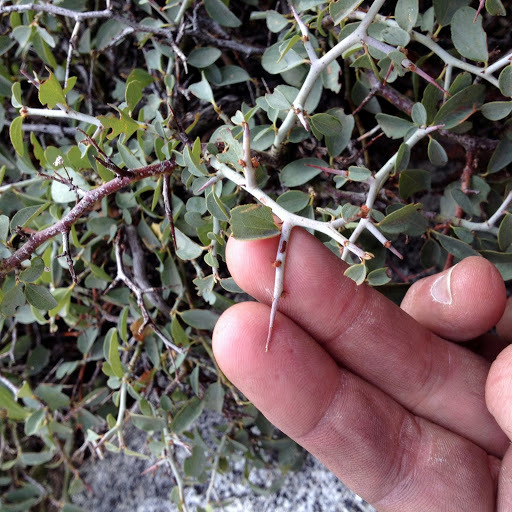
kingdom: Plantae
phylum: Tracheophyta
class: Magnoliopsida
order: Rosales
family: Rhamnaceae
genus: Ceanothus
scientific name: Ceanothus cordulatus
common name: Mountain whitethorn
